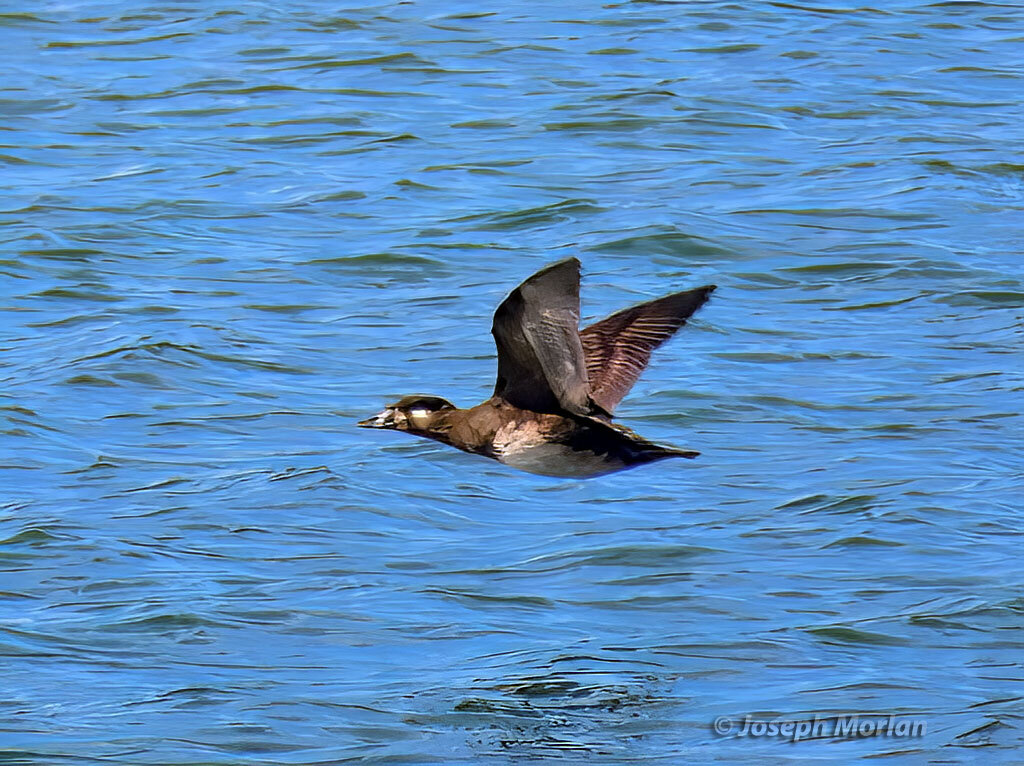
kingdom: Animalia
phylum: Chordata
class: Aves
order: Anseriformes
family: Anatidae
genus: Melanitta
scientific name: Melanitta perspicillata
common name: Surf scoter
